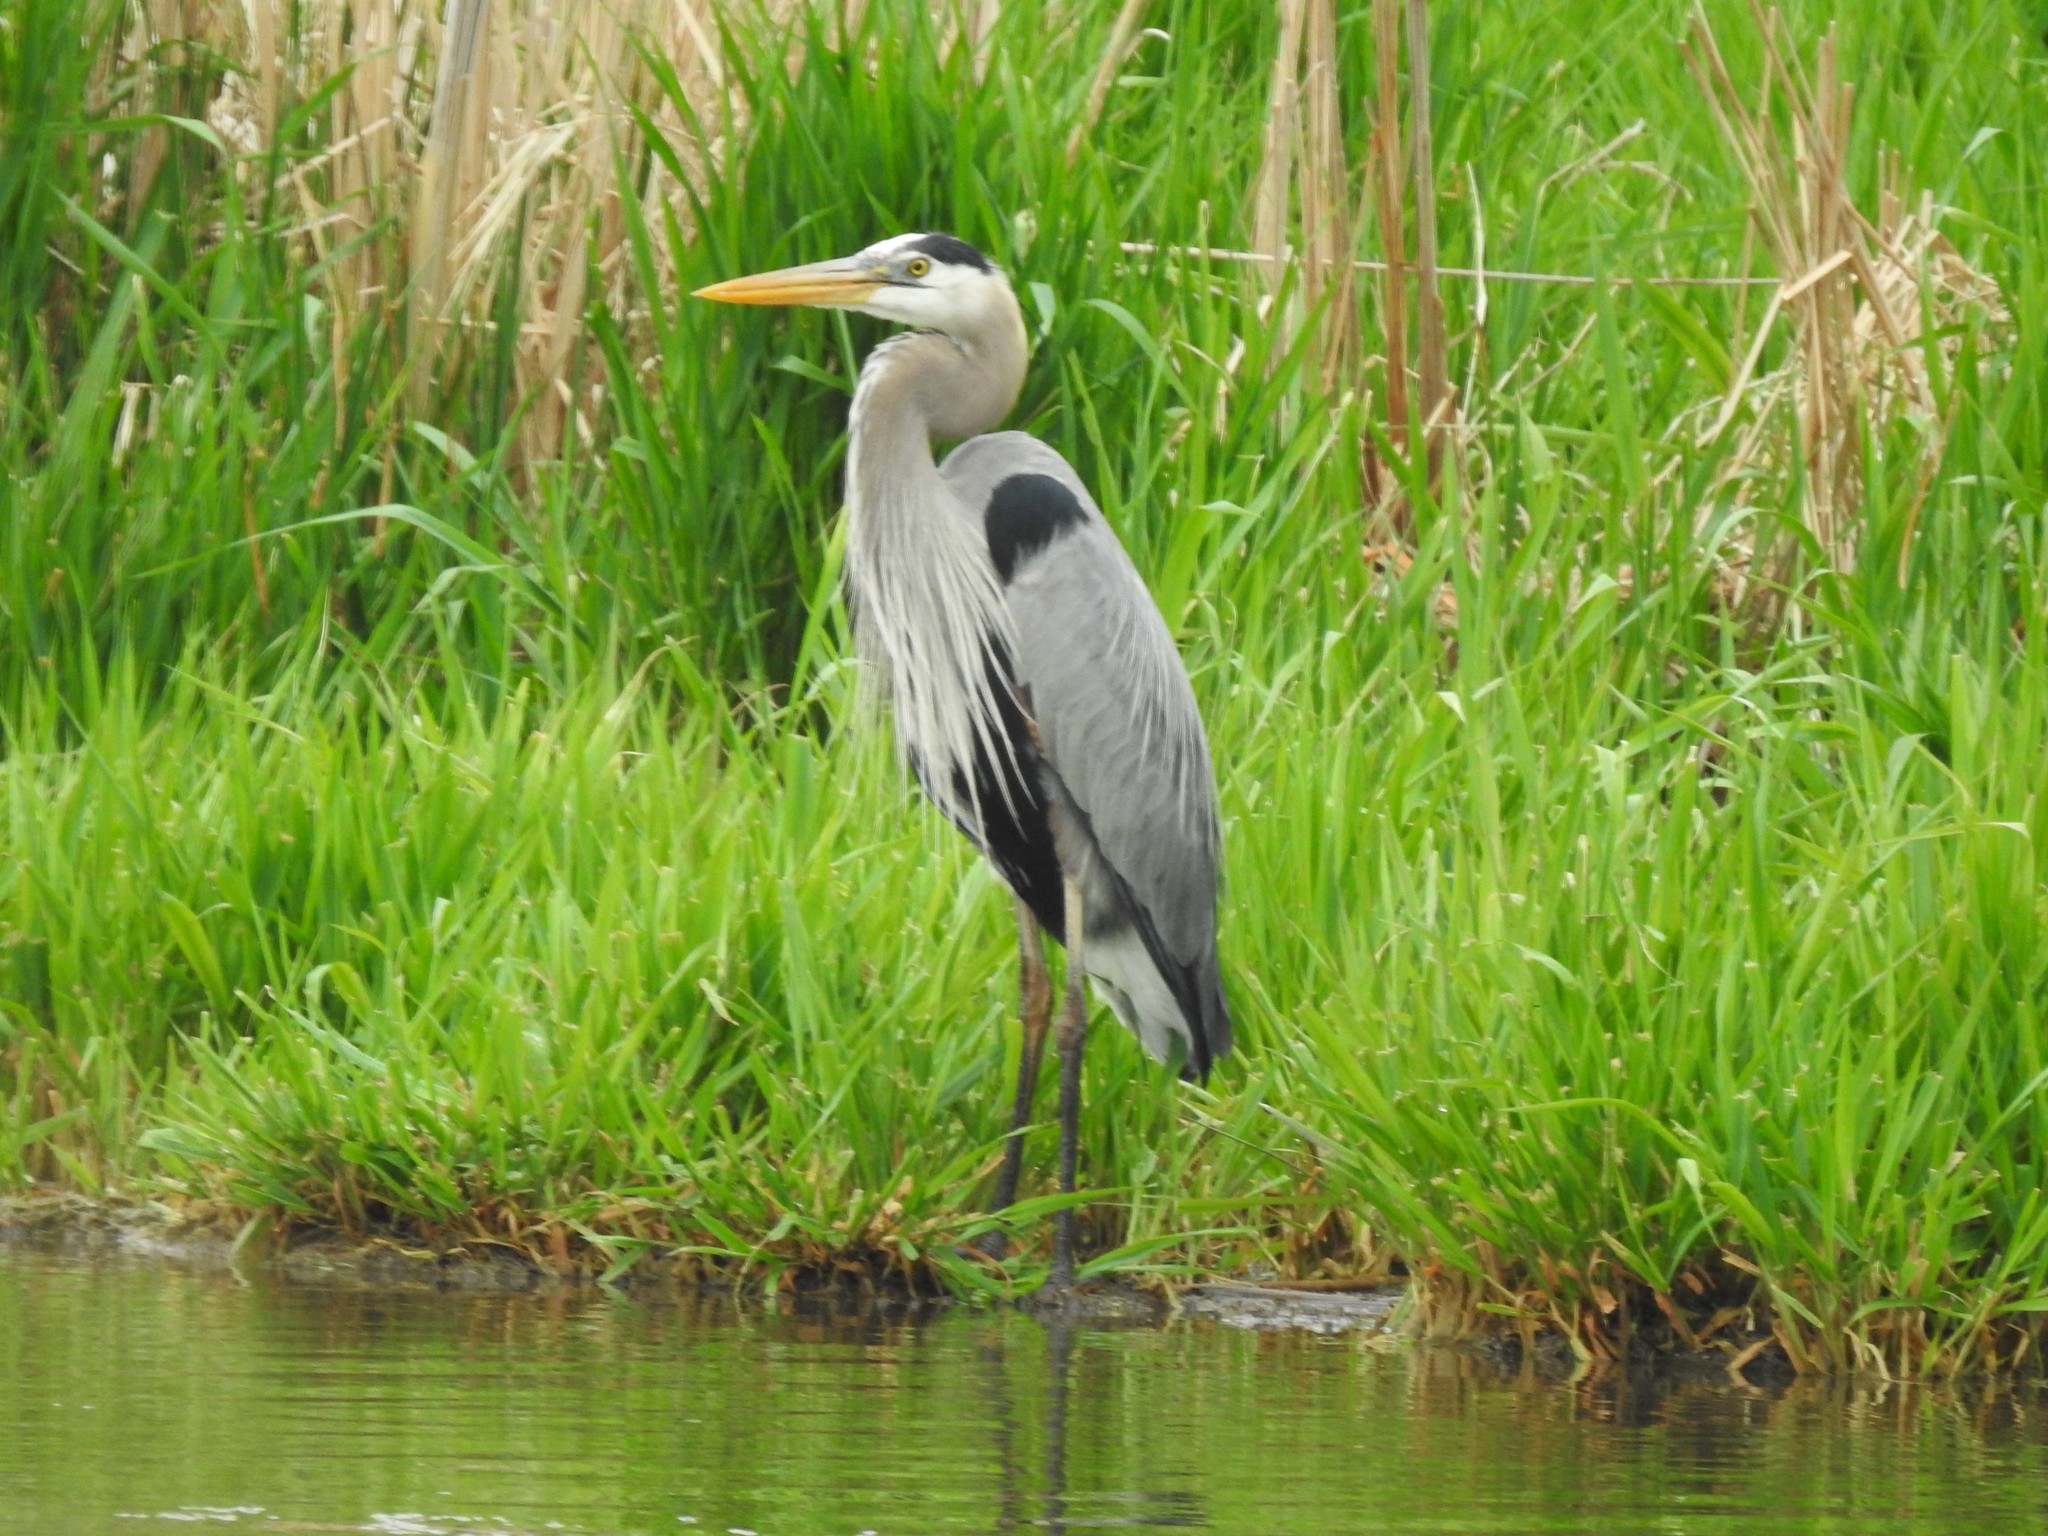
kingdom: Animalia
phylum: Chordata
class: Aves
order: Pelecaniformes
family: Ardeidae
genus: Ardea
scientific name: Ardea herodias
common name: Great blue heron
